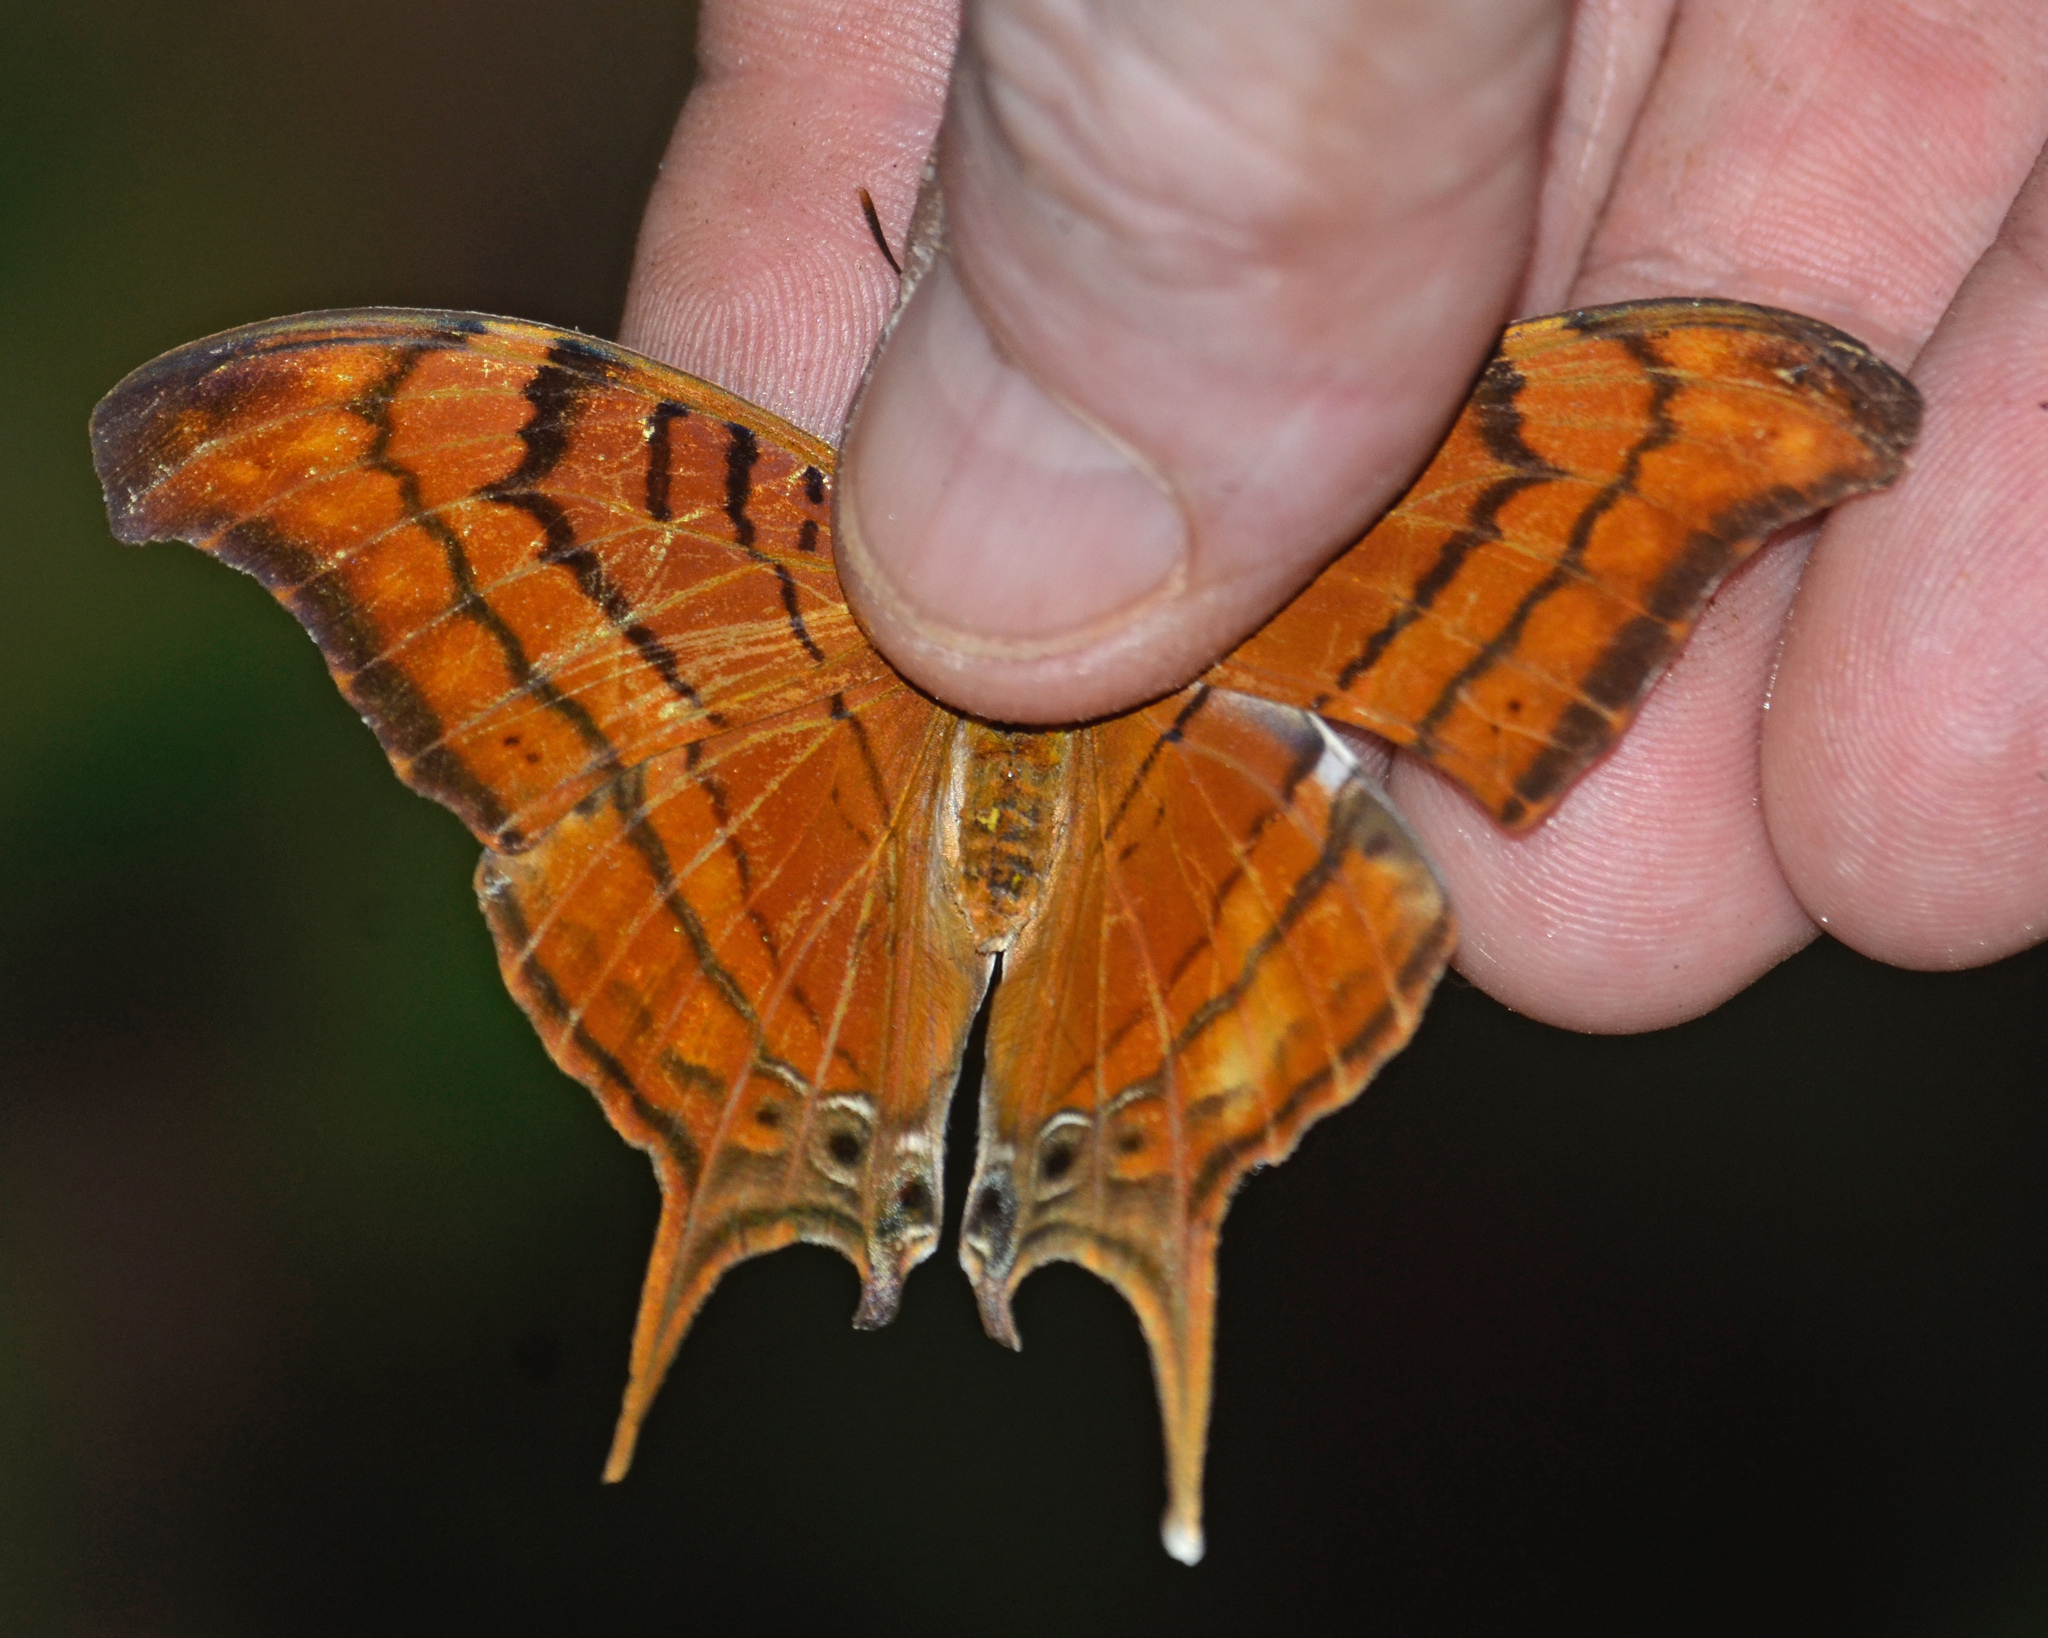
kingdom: Animalia
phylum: Arthropoda
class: Insecta
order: Lepidoptera
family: Nymphalidae
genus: Marpesia
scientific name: Marpesia eleuchea
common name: Antillean daggerwing
